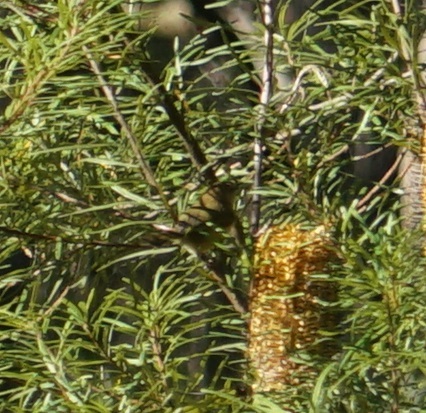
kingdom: Animalia
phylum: Chordata
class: Aves
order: Passeriformes
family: Acanthizidae
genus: Acanthiza
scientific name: Acanthiza lineata
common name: Striated thornbill
